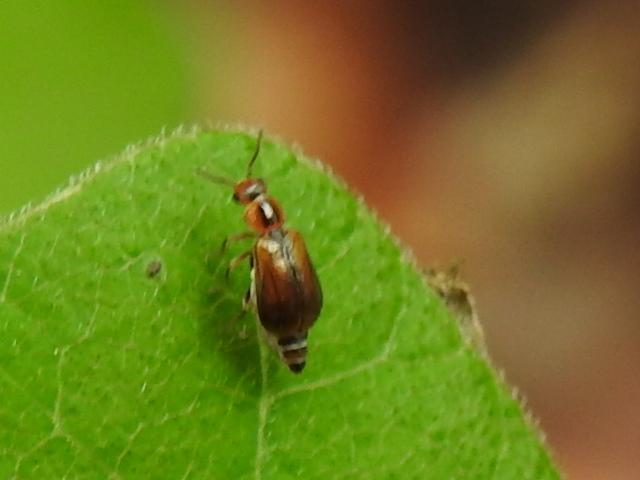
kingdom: Animalia
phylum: Arthropoda
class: Insecta
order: Coleoptera
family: Malachiidae
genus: Attalus
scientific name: Attalus
